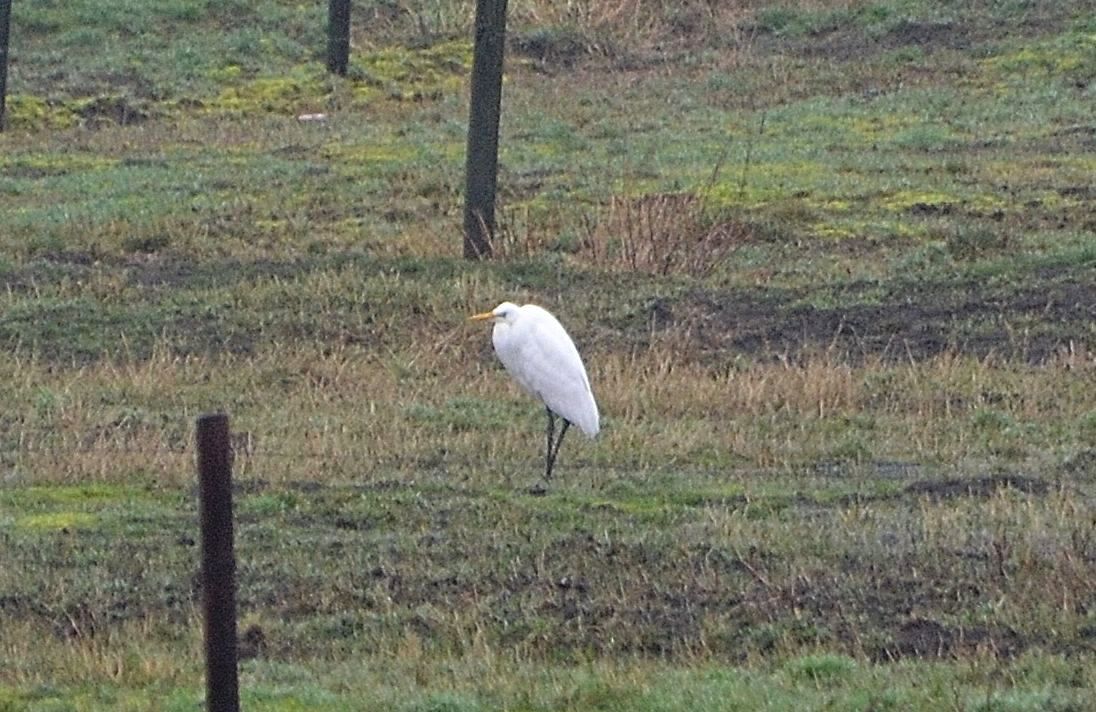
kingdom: Animalia
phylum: Chordata
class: Aves
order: Pelecaniformes
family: Ardeidae
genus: Ardea
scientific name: Ardea alba
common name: Great egret
